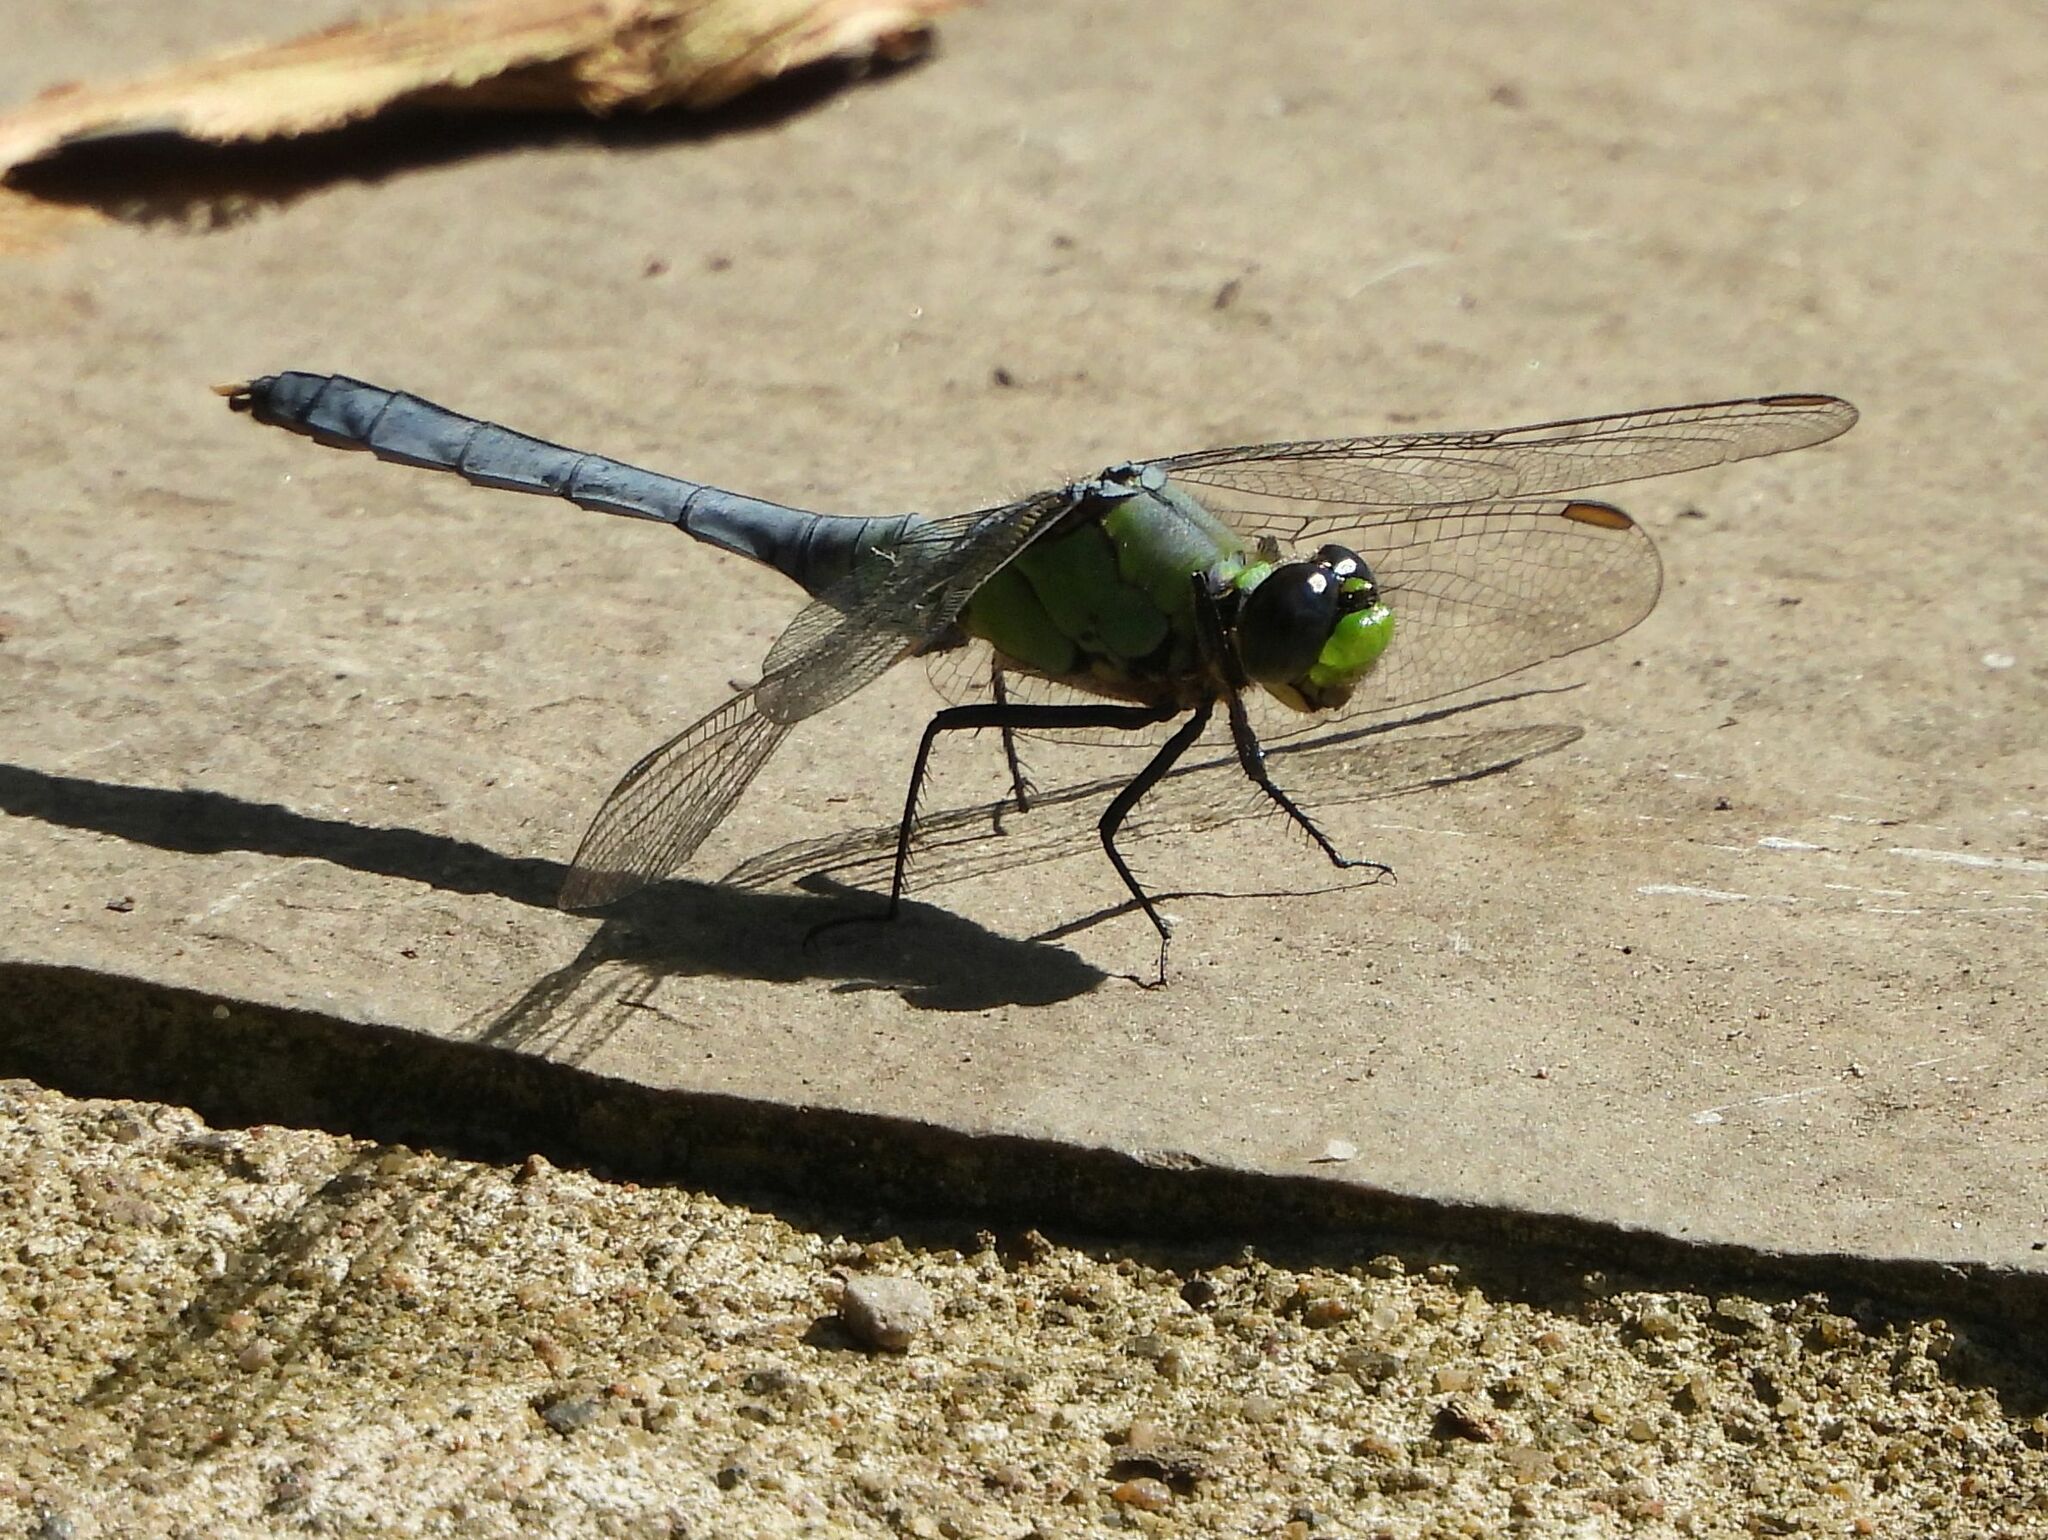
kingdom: Animalia
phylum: Arthropoda
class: Insecta
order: Odonata
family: Libellulidae
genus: Erythemis
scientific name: Erythemis simplicicollis
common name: Eastern pondhawk
